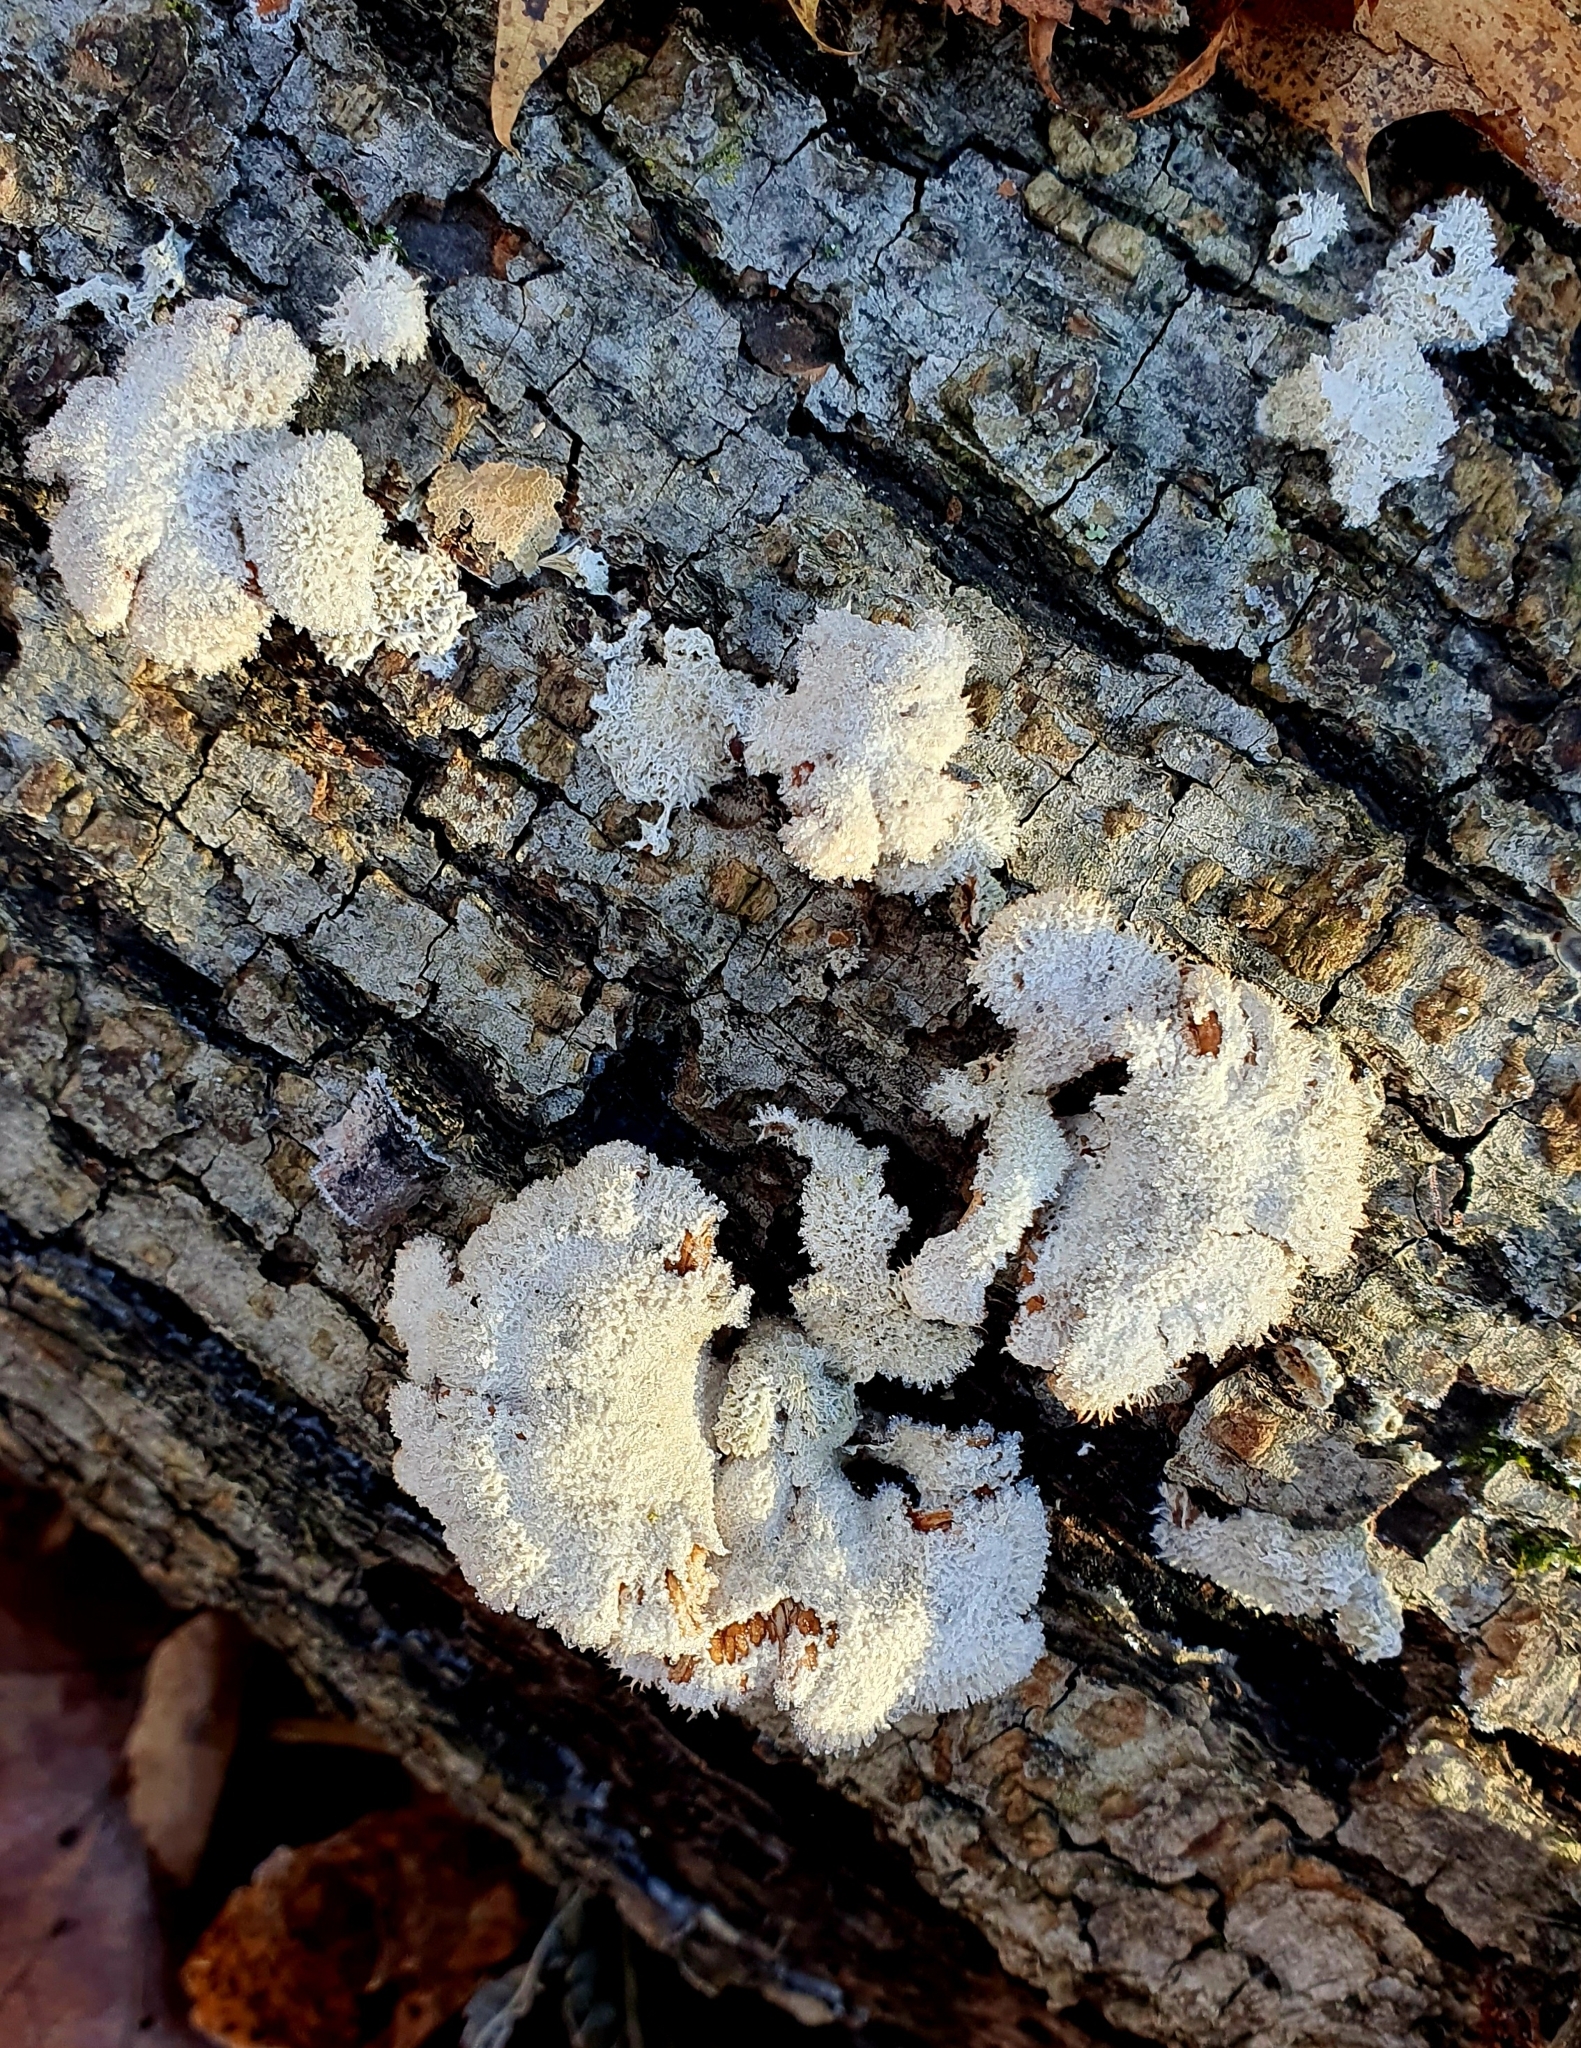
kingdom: Fungi
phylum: Basidiomycota
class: Agaricomycetes
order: Agaricales
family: Schizophyllaceae
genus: Schizophyllum
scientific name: Schizophyllum commune
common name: Common porecrust
